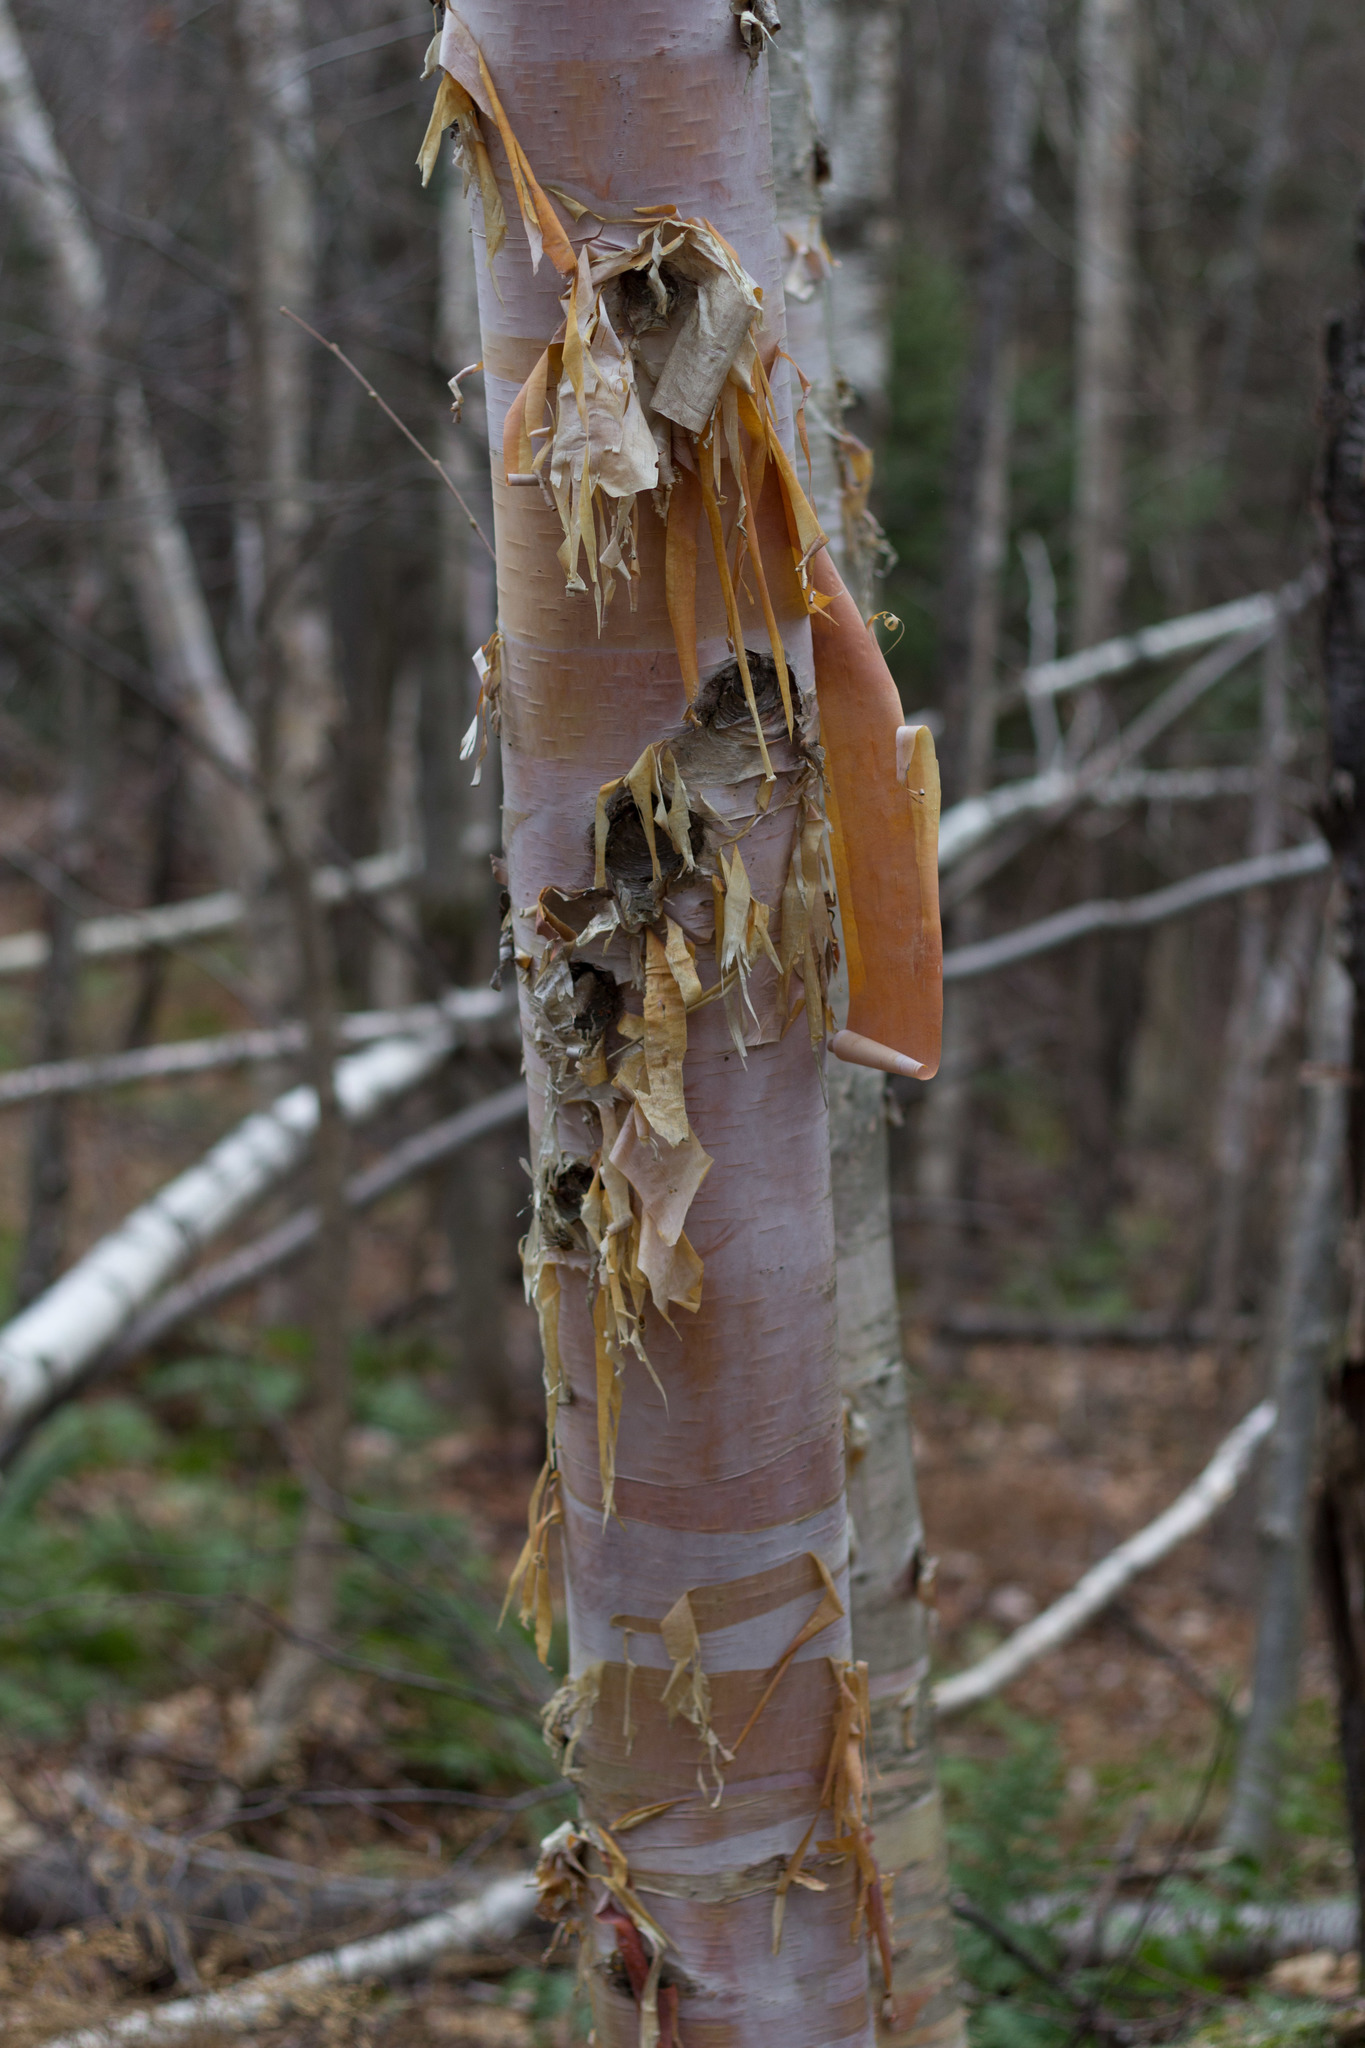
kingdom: Plantae
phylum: Tracheophyta
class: Magnoliopsida
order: Fagales
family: Betulaceae
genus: Betula
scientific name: Betula cordifolia
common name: Mountain white birch
